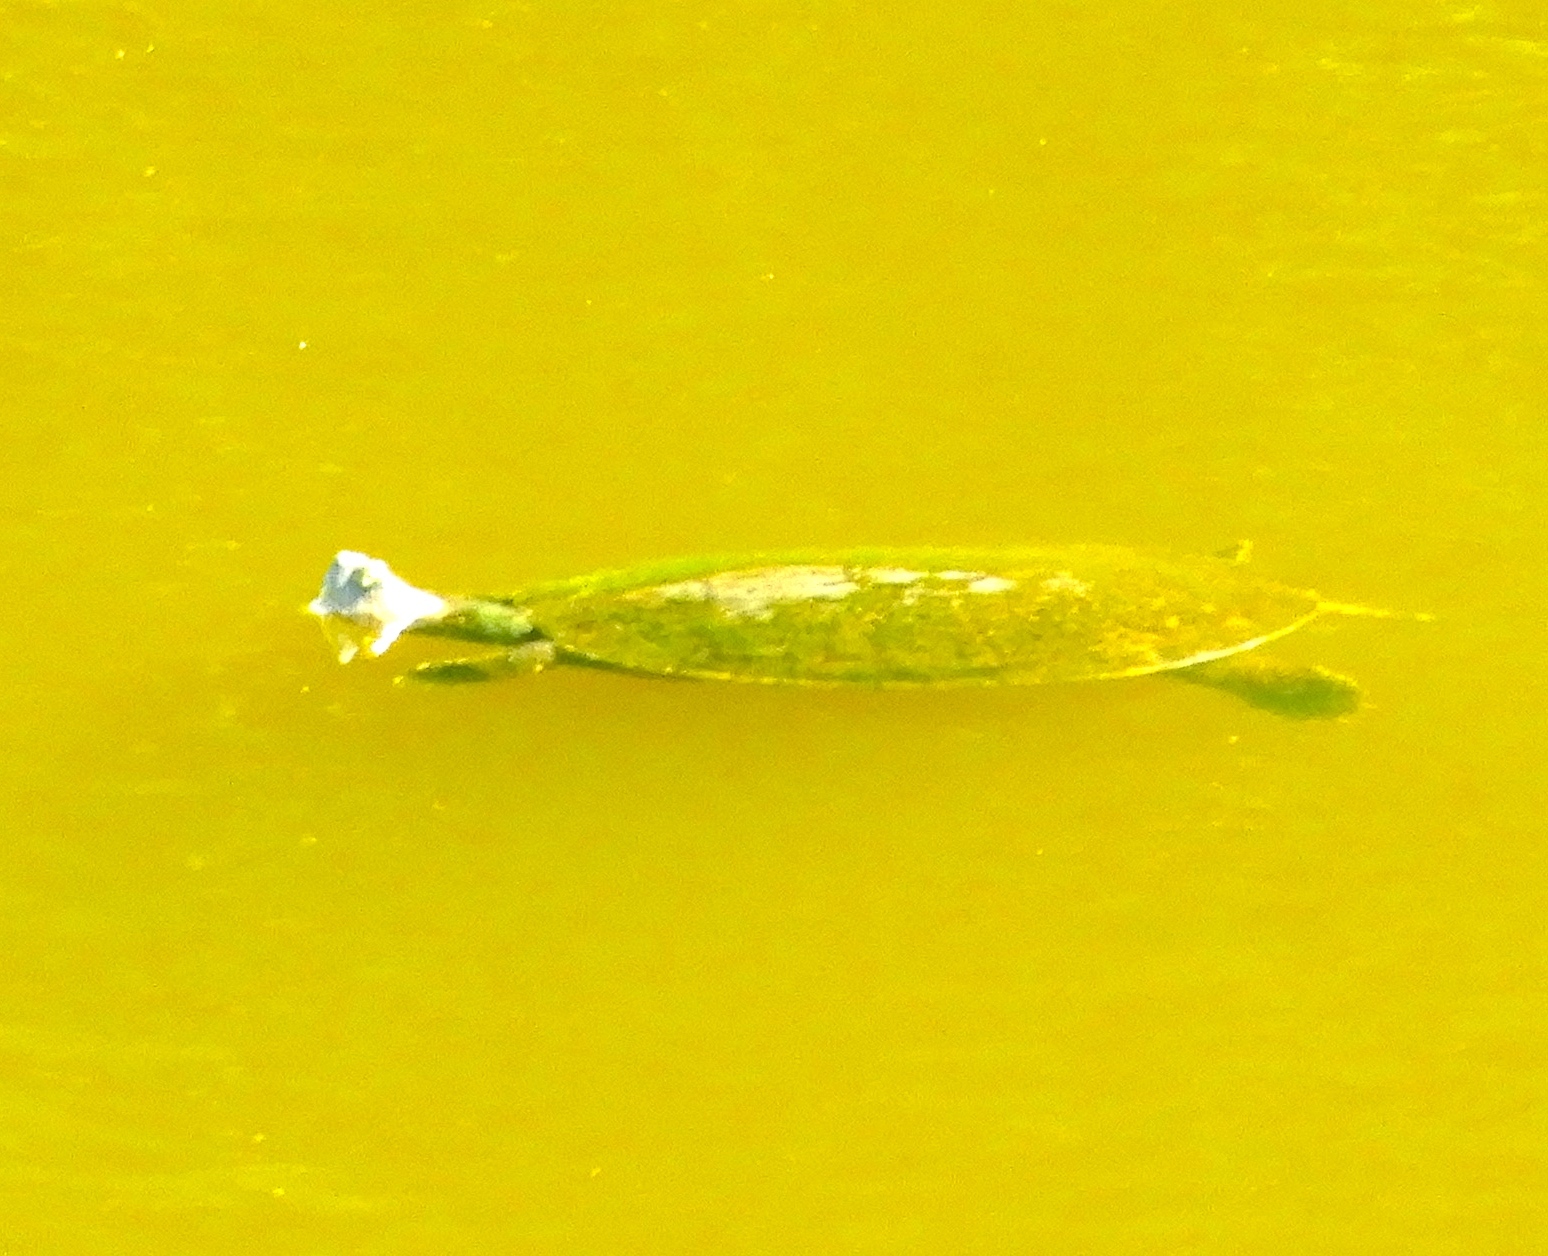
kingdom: Animalia
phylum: Chordata
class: Testudines
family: Emydidae
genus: Trachemys
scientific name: Trachemys ornata
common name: Ornate slider
